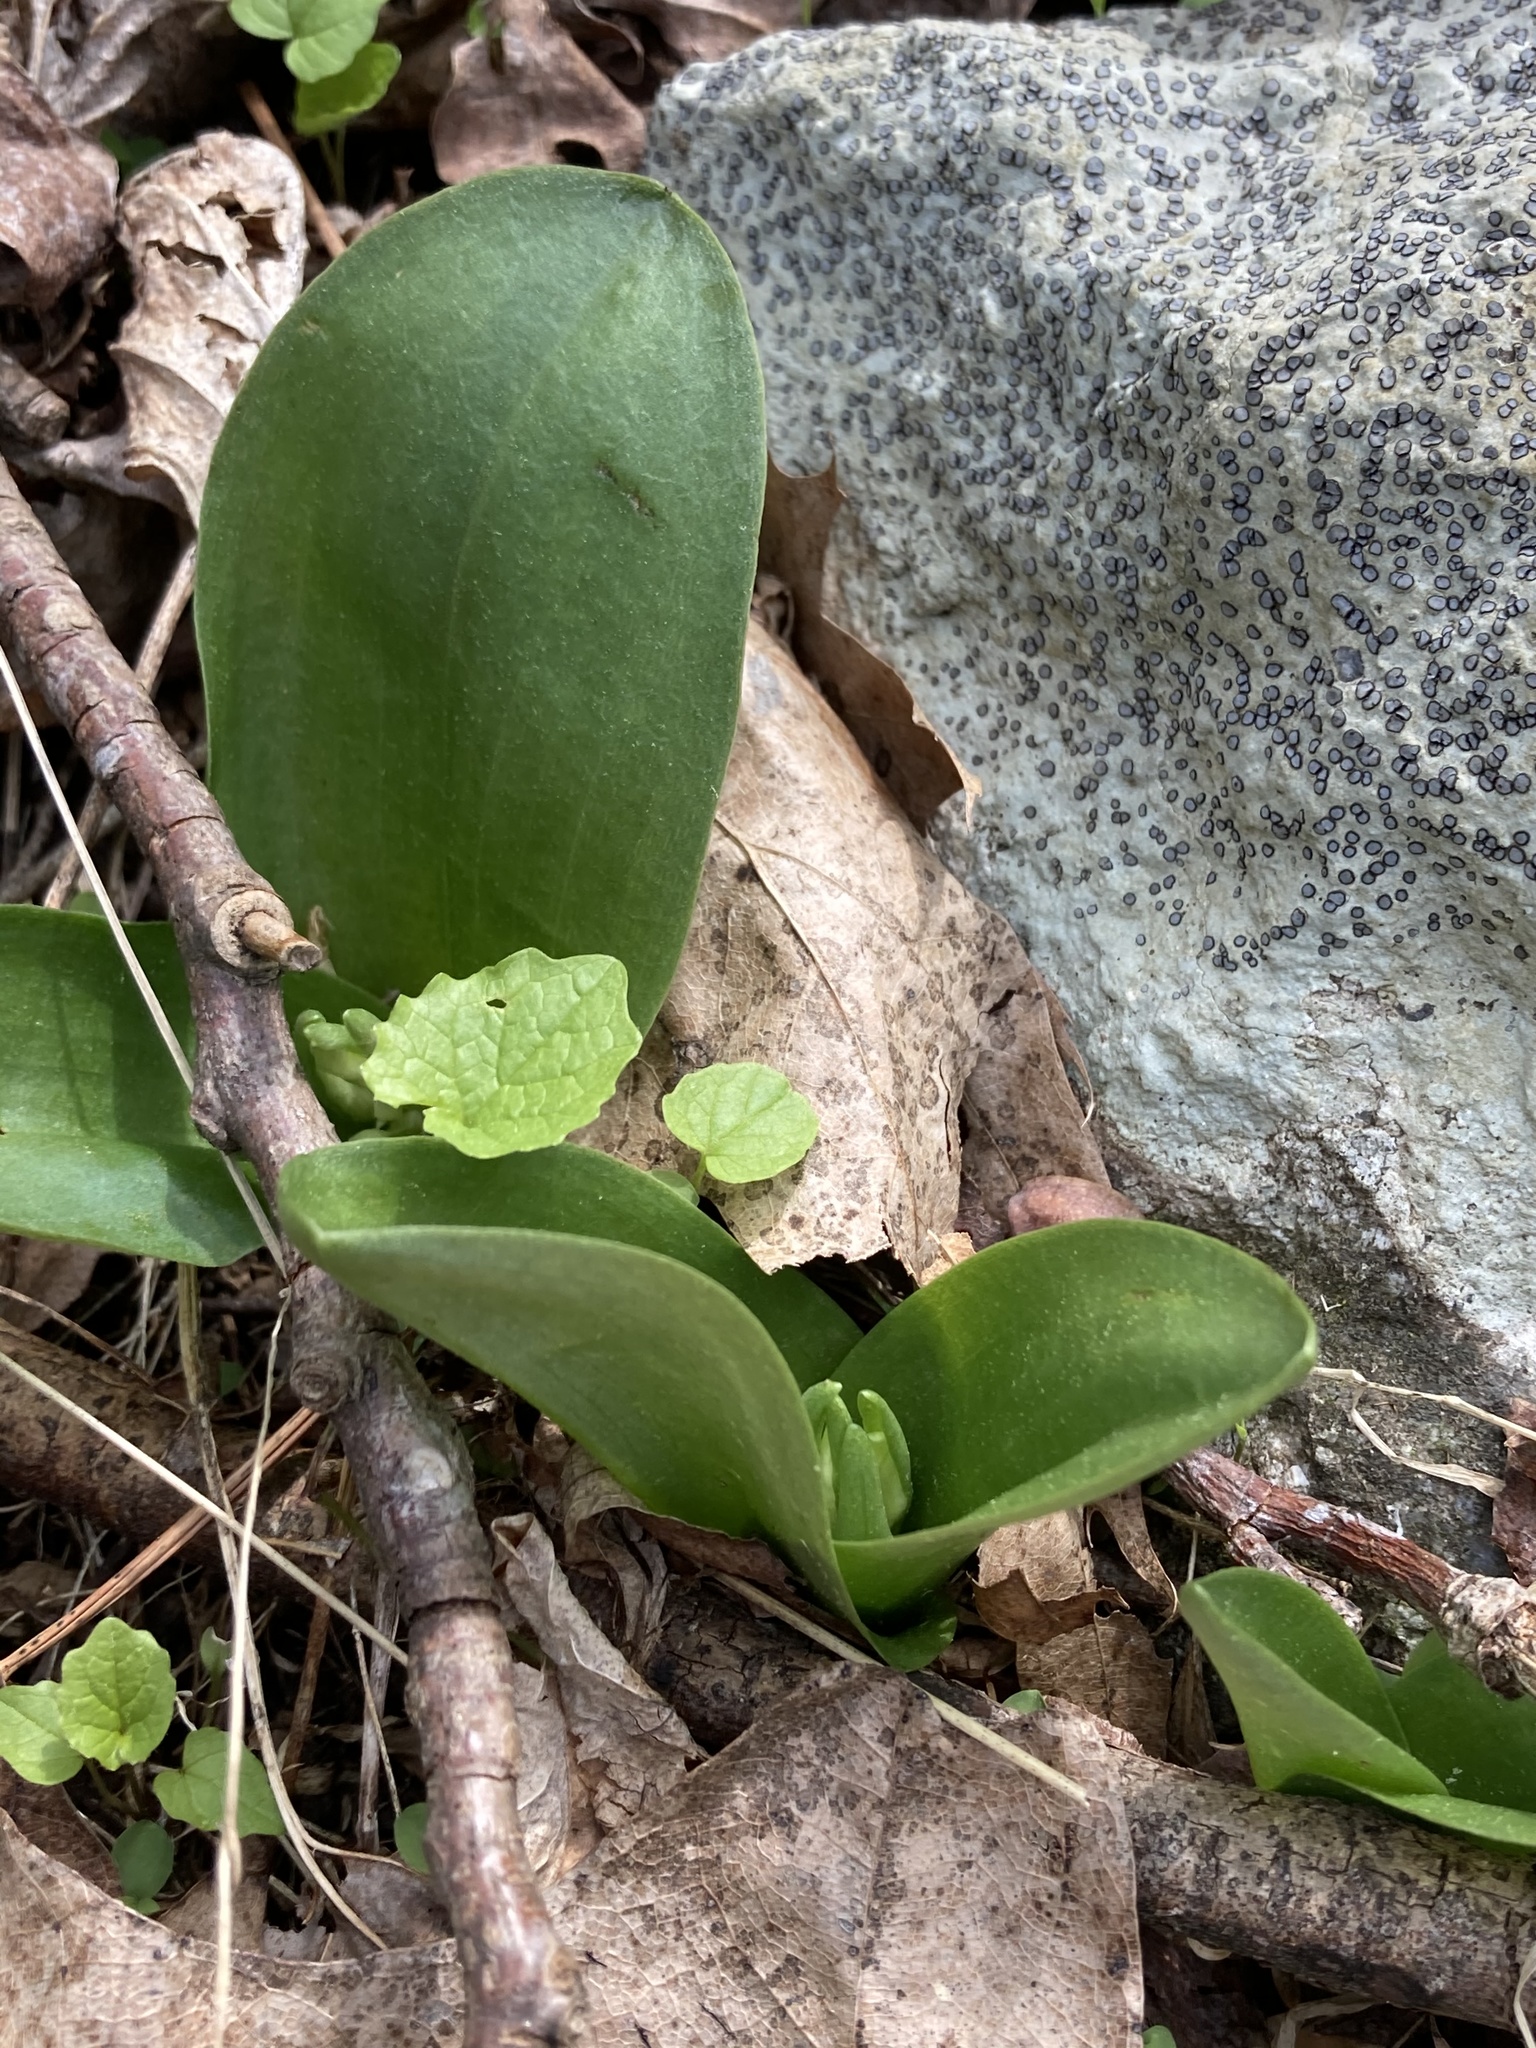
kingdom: Plantae
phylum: Tracheophyta
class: Liliopsida
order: Asparagales
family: Orchidaceae
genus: Galearis
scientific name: Galearis spectabilis
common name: Purple-hooded orchis
